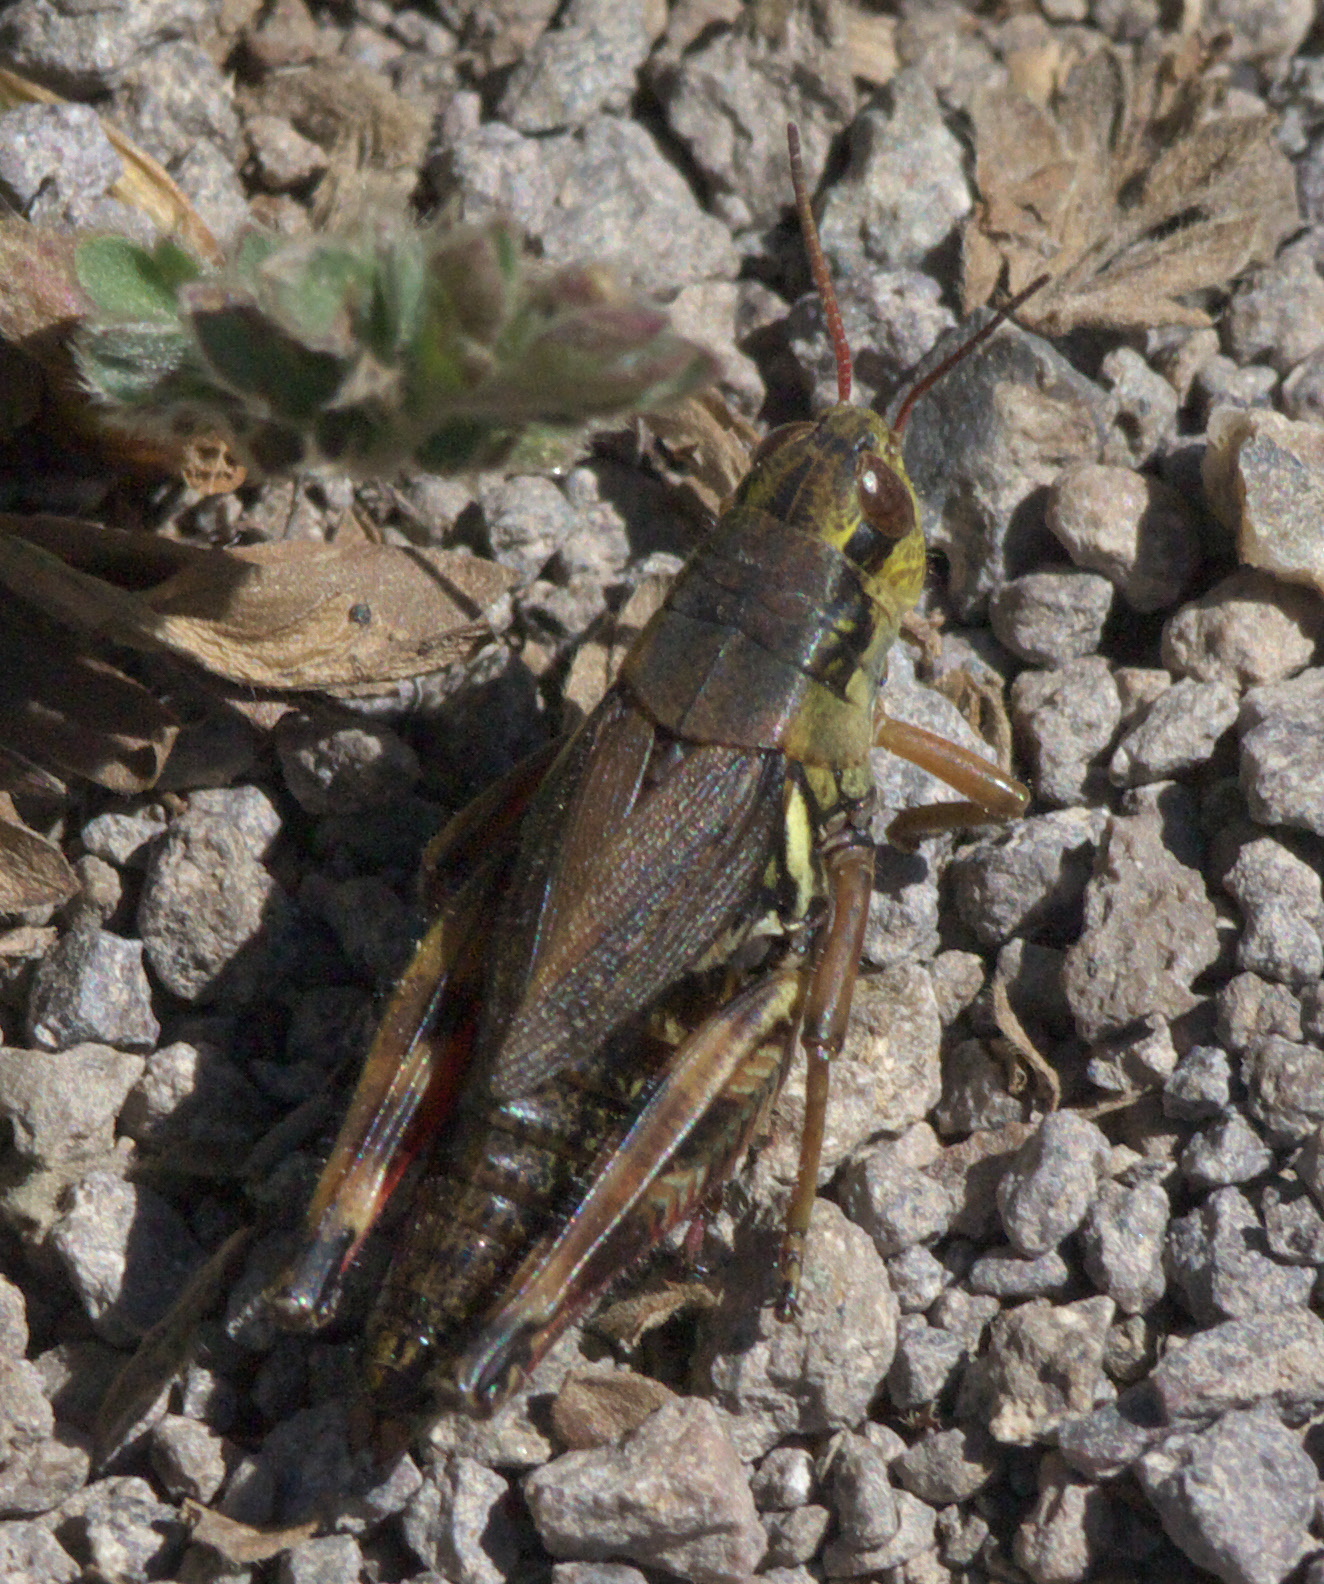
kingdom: Animalia
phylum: Arthropoda
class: Insecta
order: Orthoptera
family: Acrididae
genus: Melanoplus
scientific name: Melanoplus borealis
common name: Northern grasshopper
